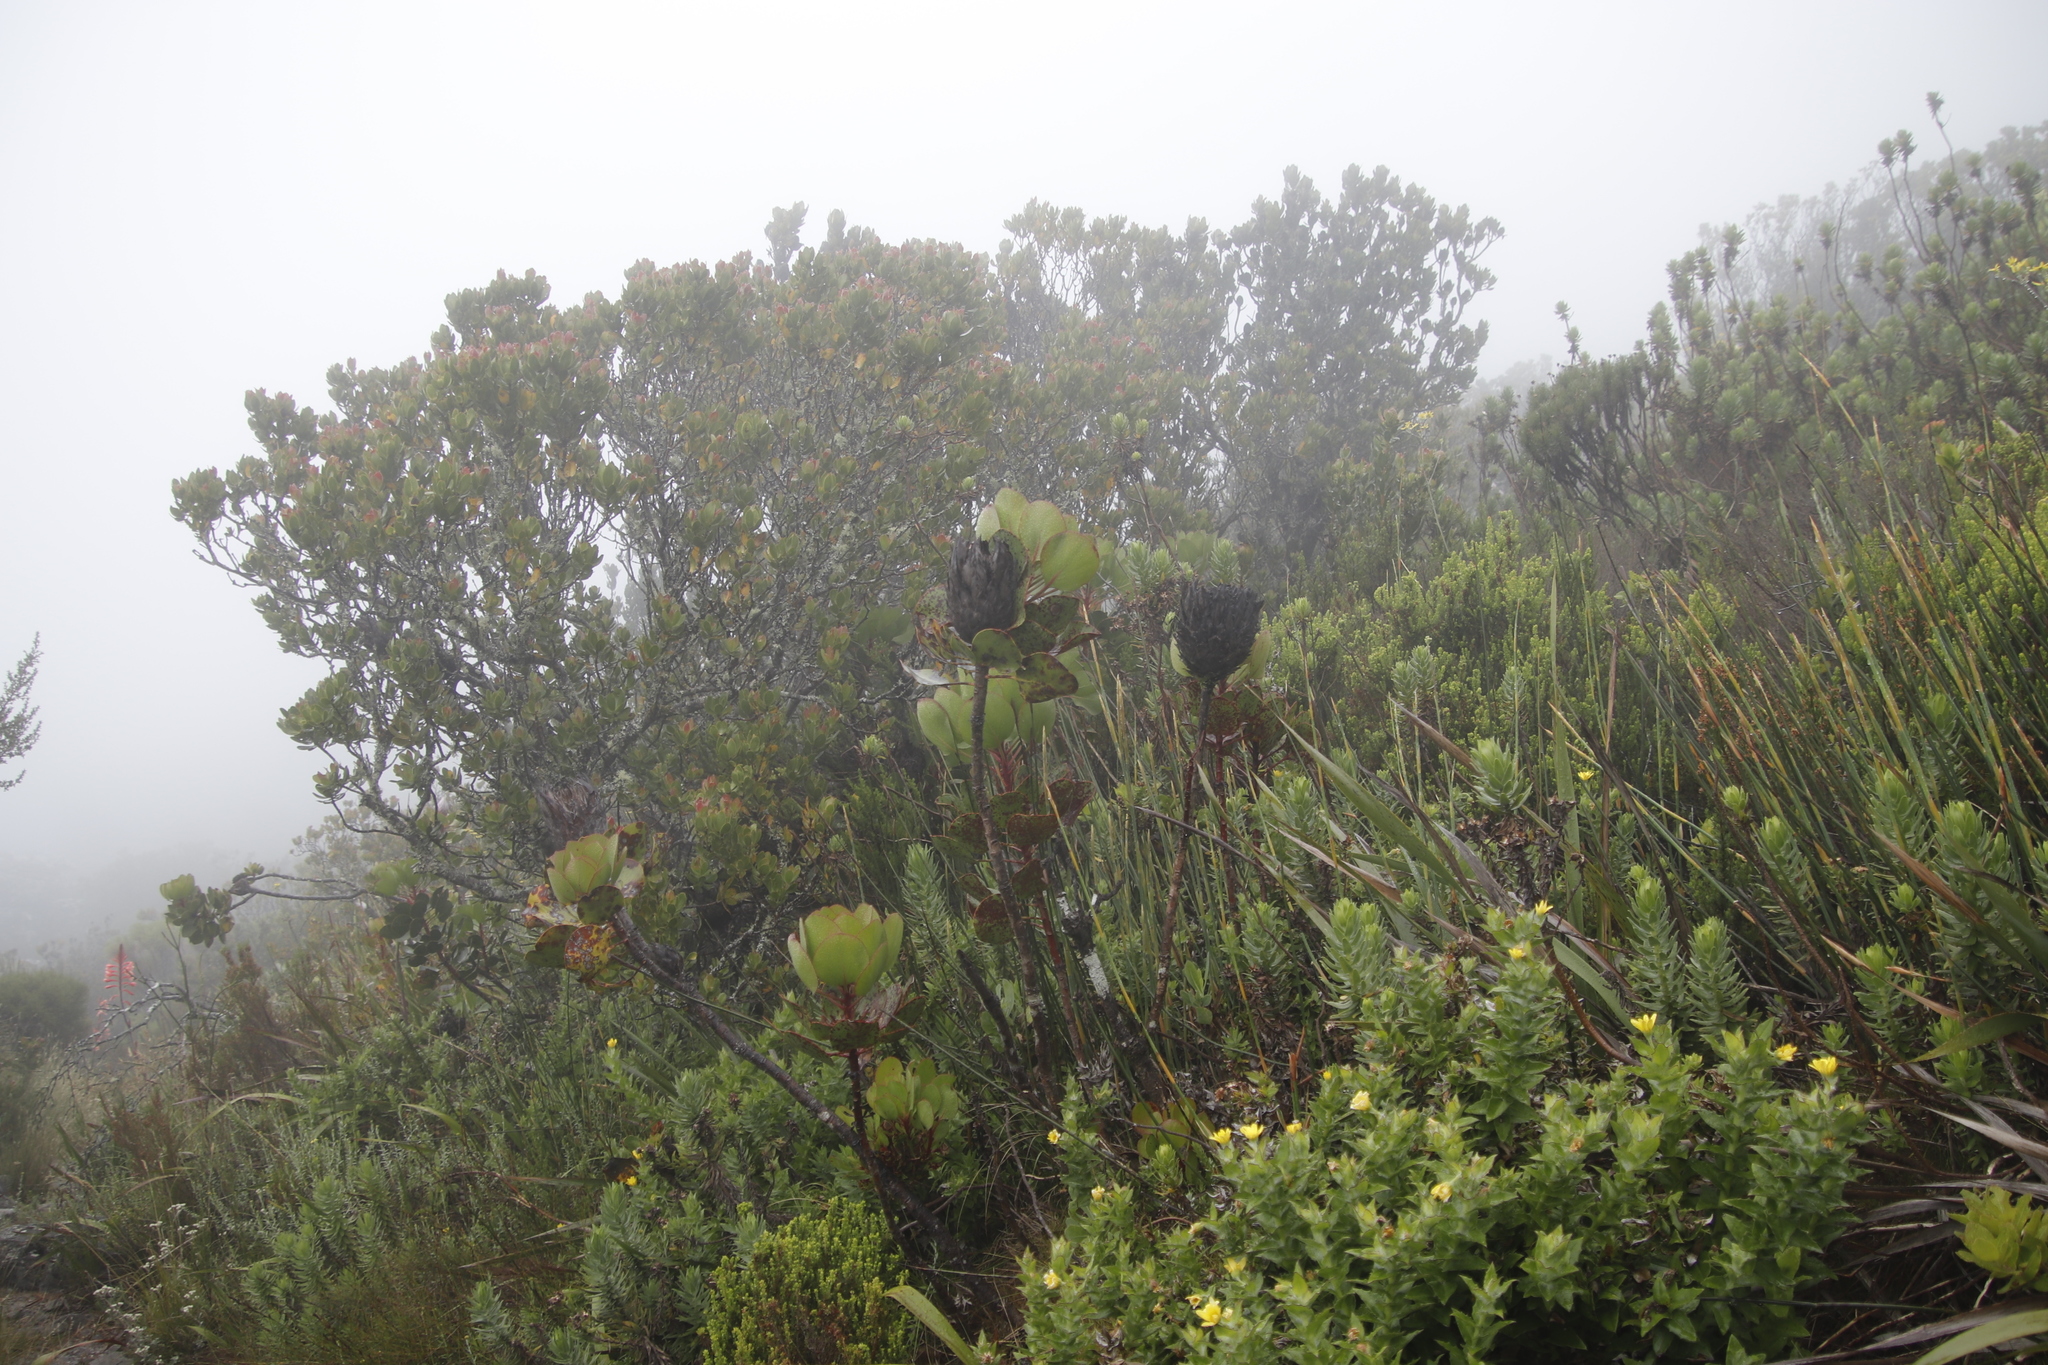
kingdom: Plantae
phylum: Tracheophyta
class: Magnoliopsida
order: Proteales
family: Proteaceae
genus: Protea
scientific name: Protea cynaroides
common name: King protea
